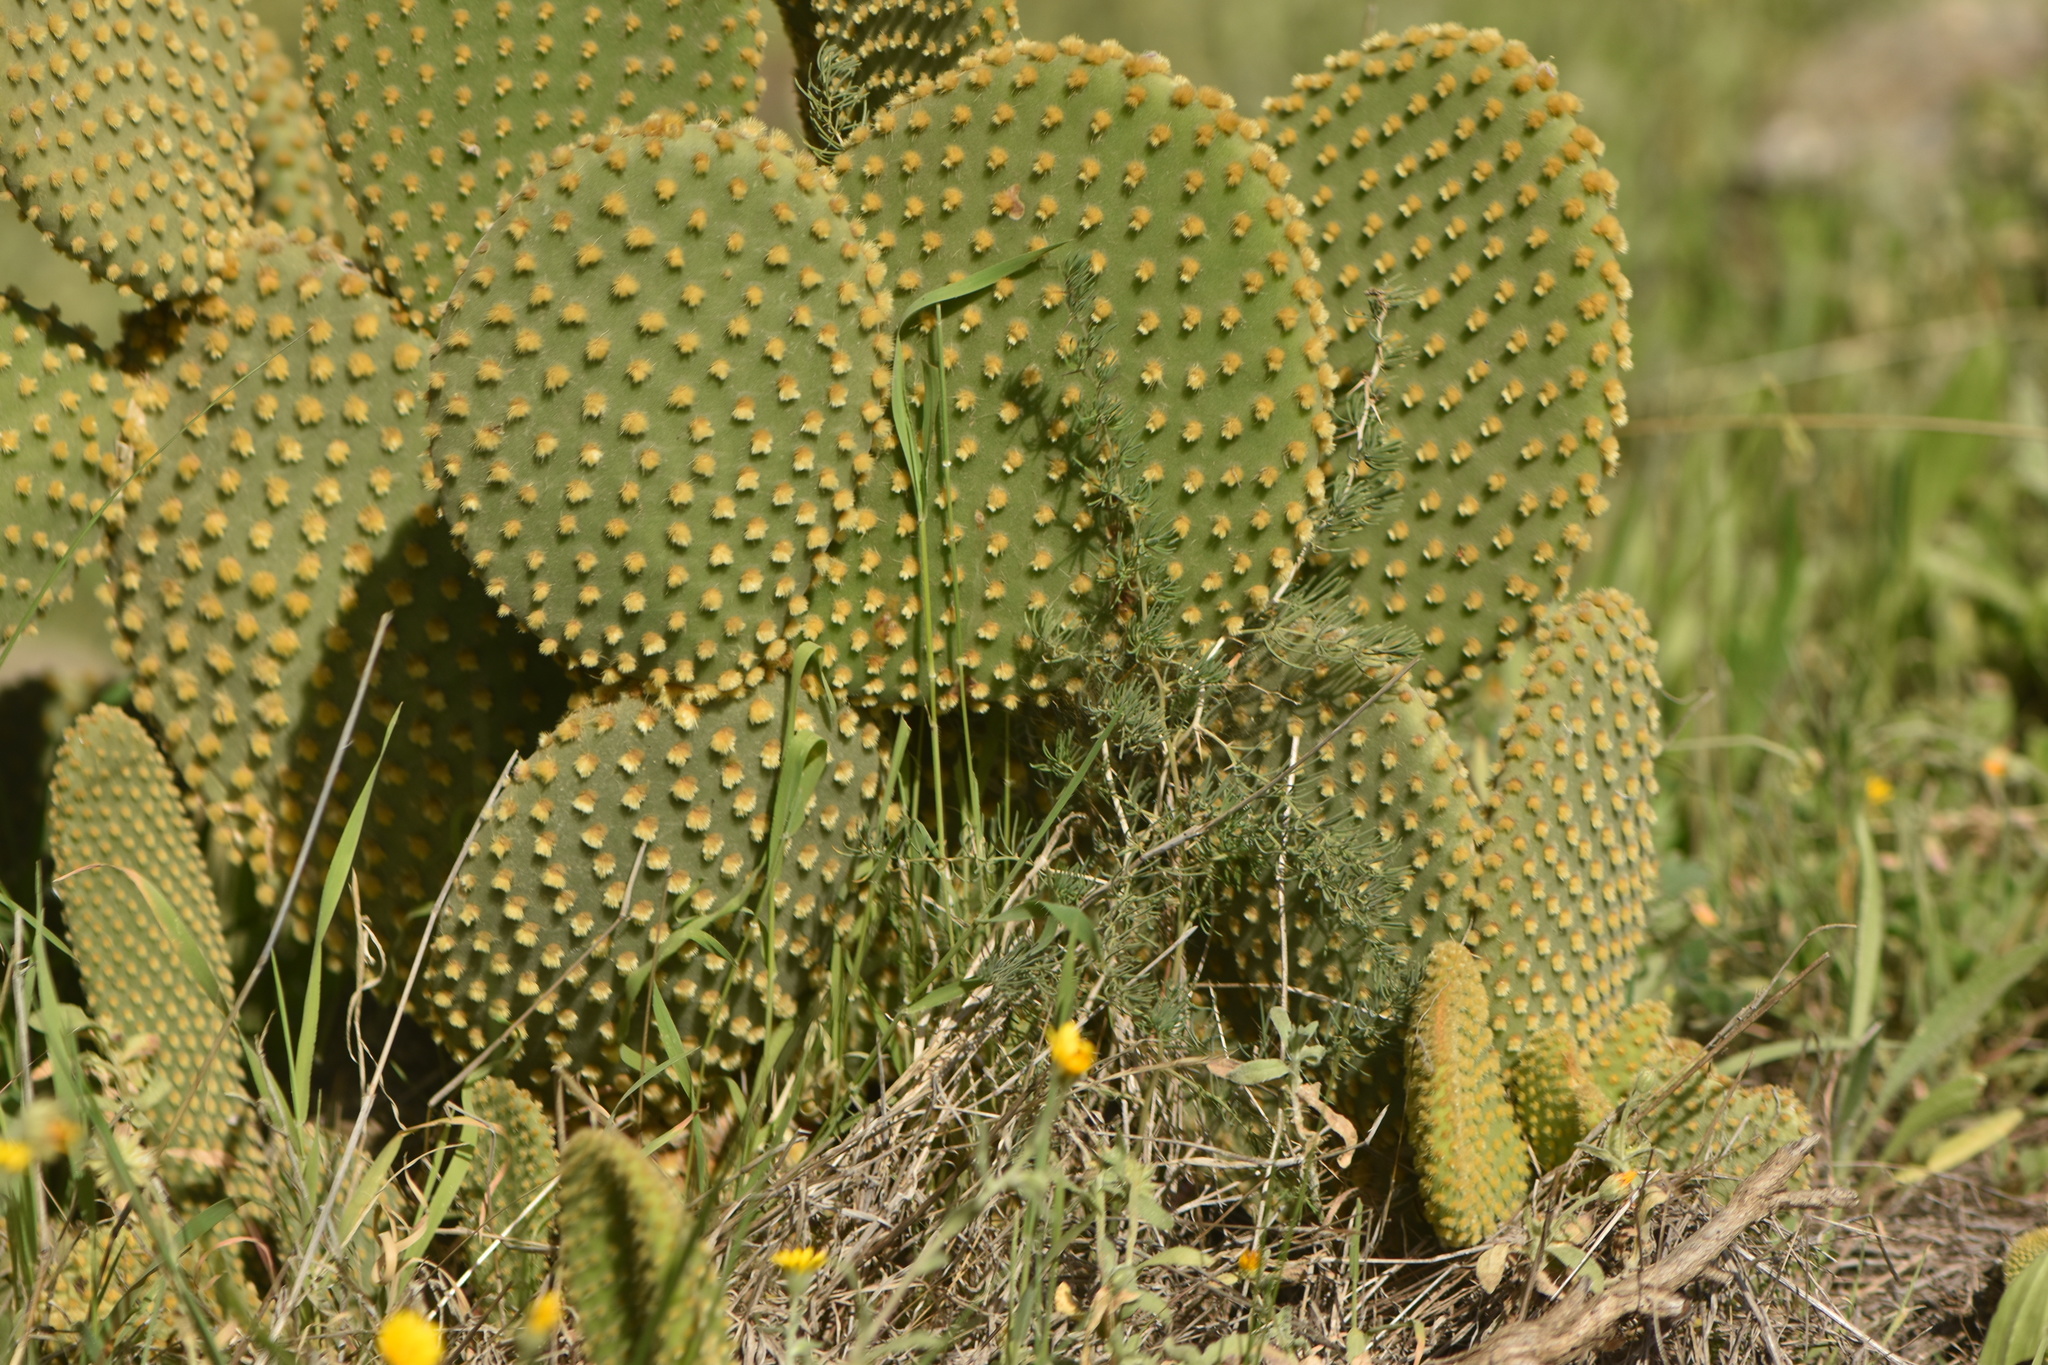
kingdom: Plantae
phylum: Tracheophyta
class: Magnoliopsida
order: Caryophyllales
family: Cactaceae
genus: Opuntia
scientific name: Opuntia microdasys
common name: Angel's-wings
